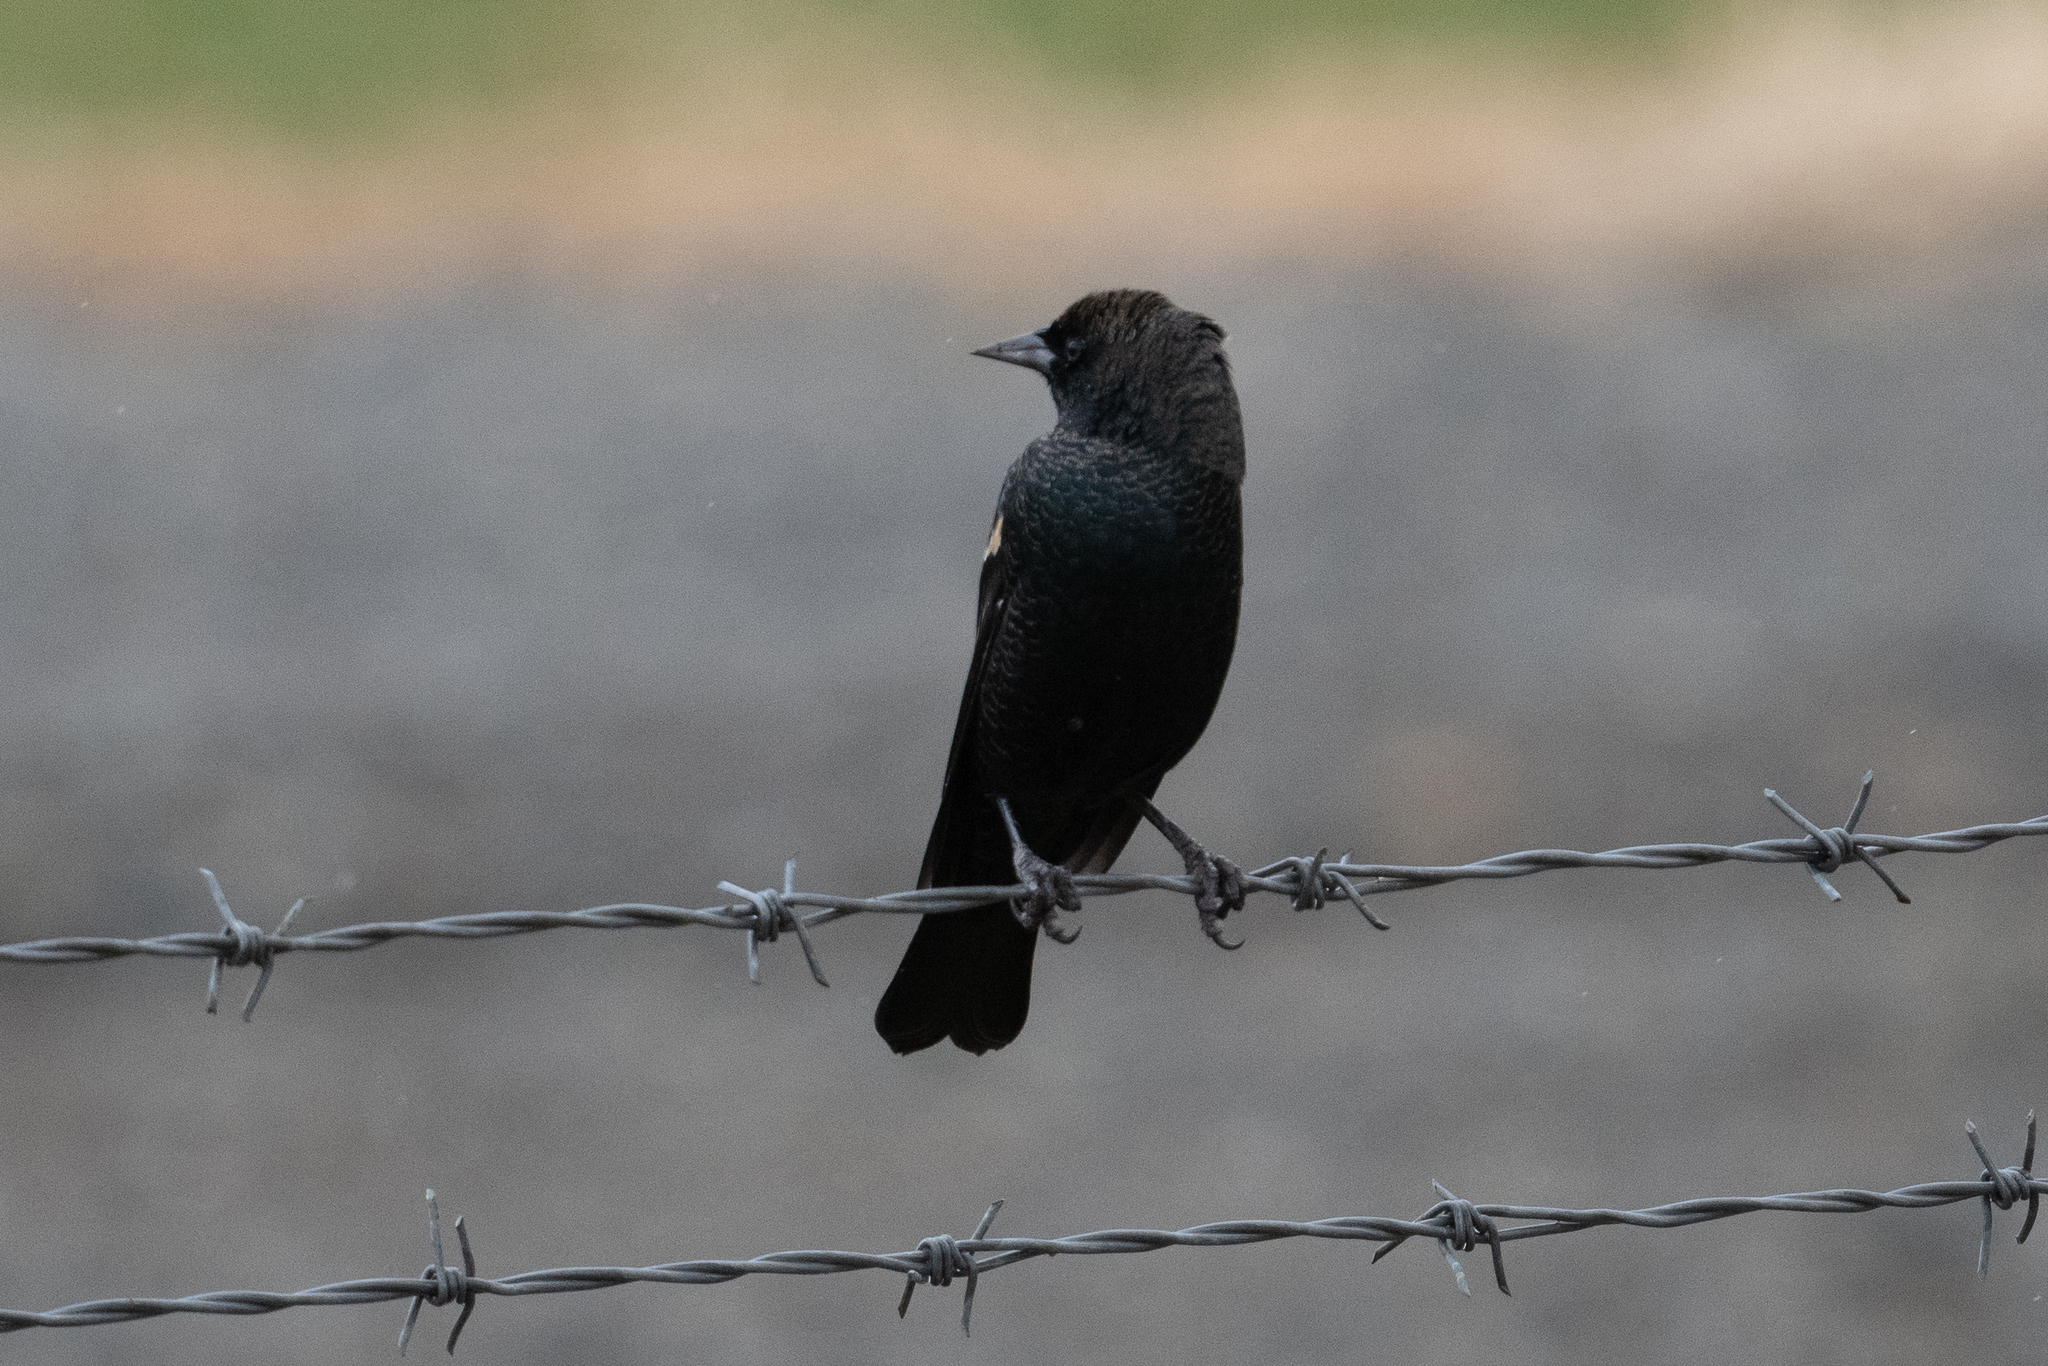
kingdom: Animalia
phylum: Chordata
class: Aves
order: Passeriformes
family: Icteridae
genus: Agelaius
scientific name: Agelaius tricolor
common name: Tricolored blackbird
